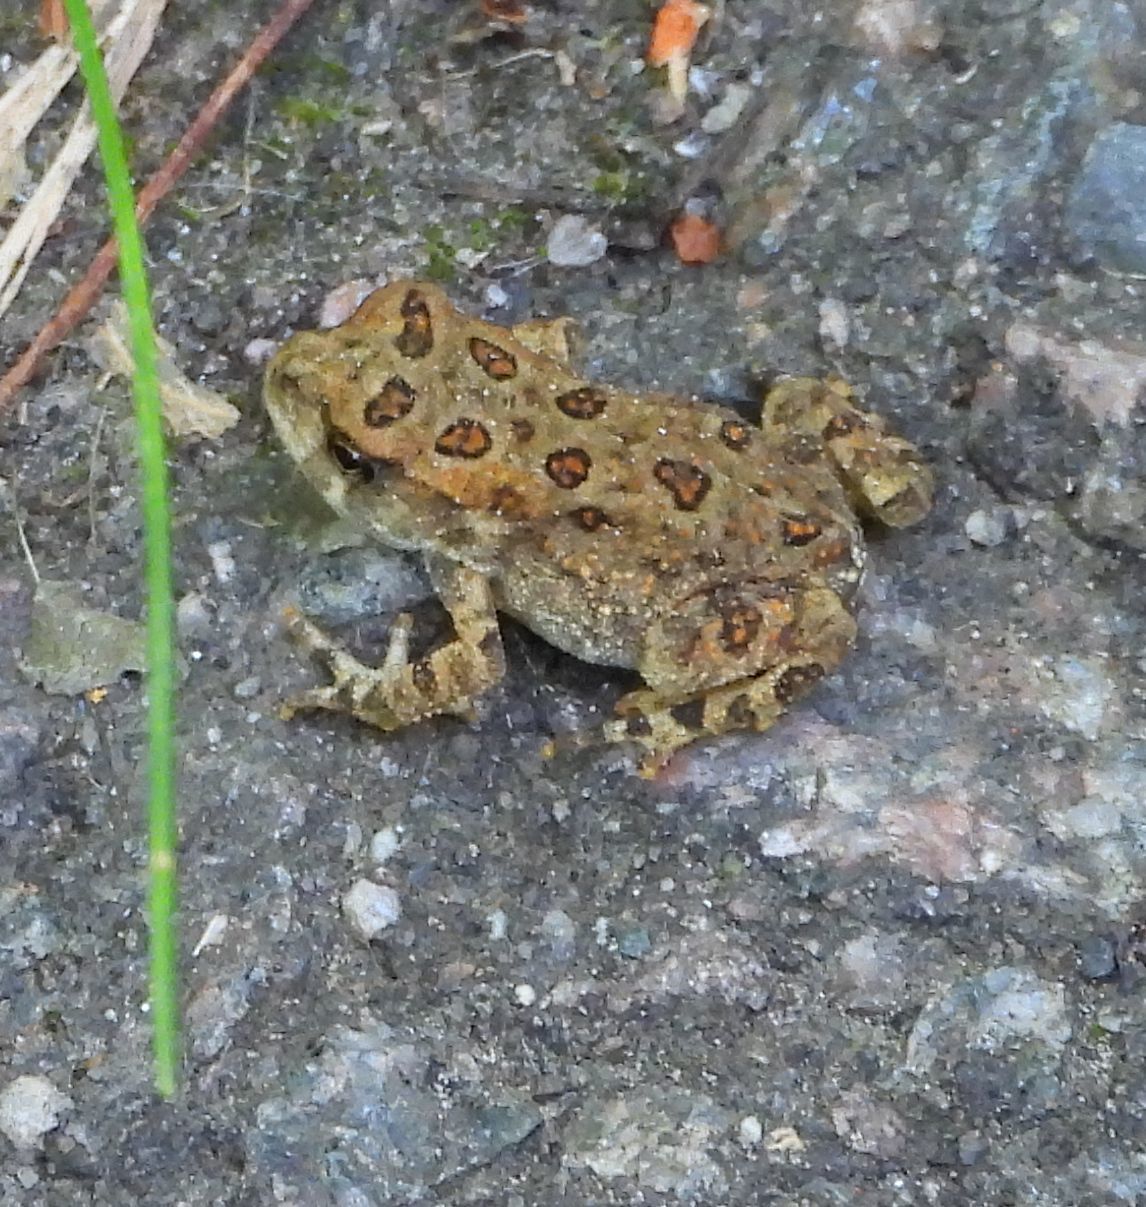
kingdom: Animalia
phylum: Chordata
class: Amphibia
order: Anura
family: Bufonidae
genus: Anaxyrus
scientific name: Anaxyrus americanus
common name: American toad
